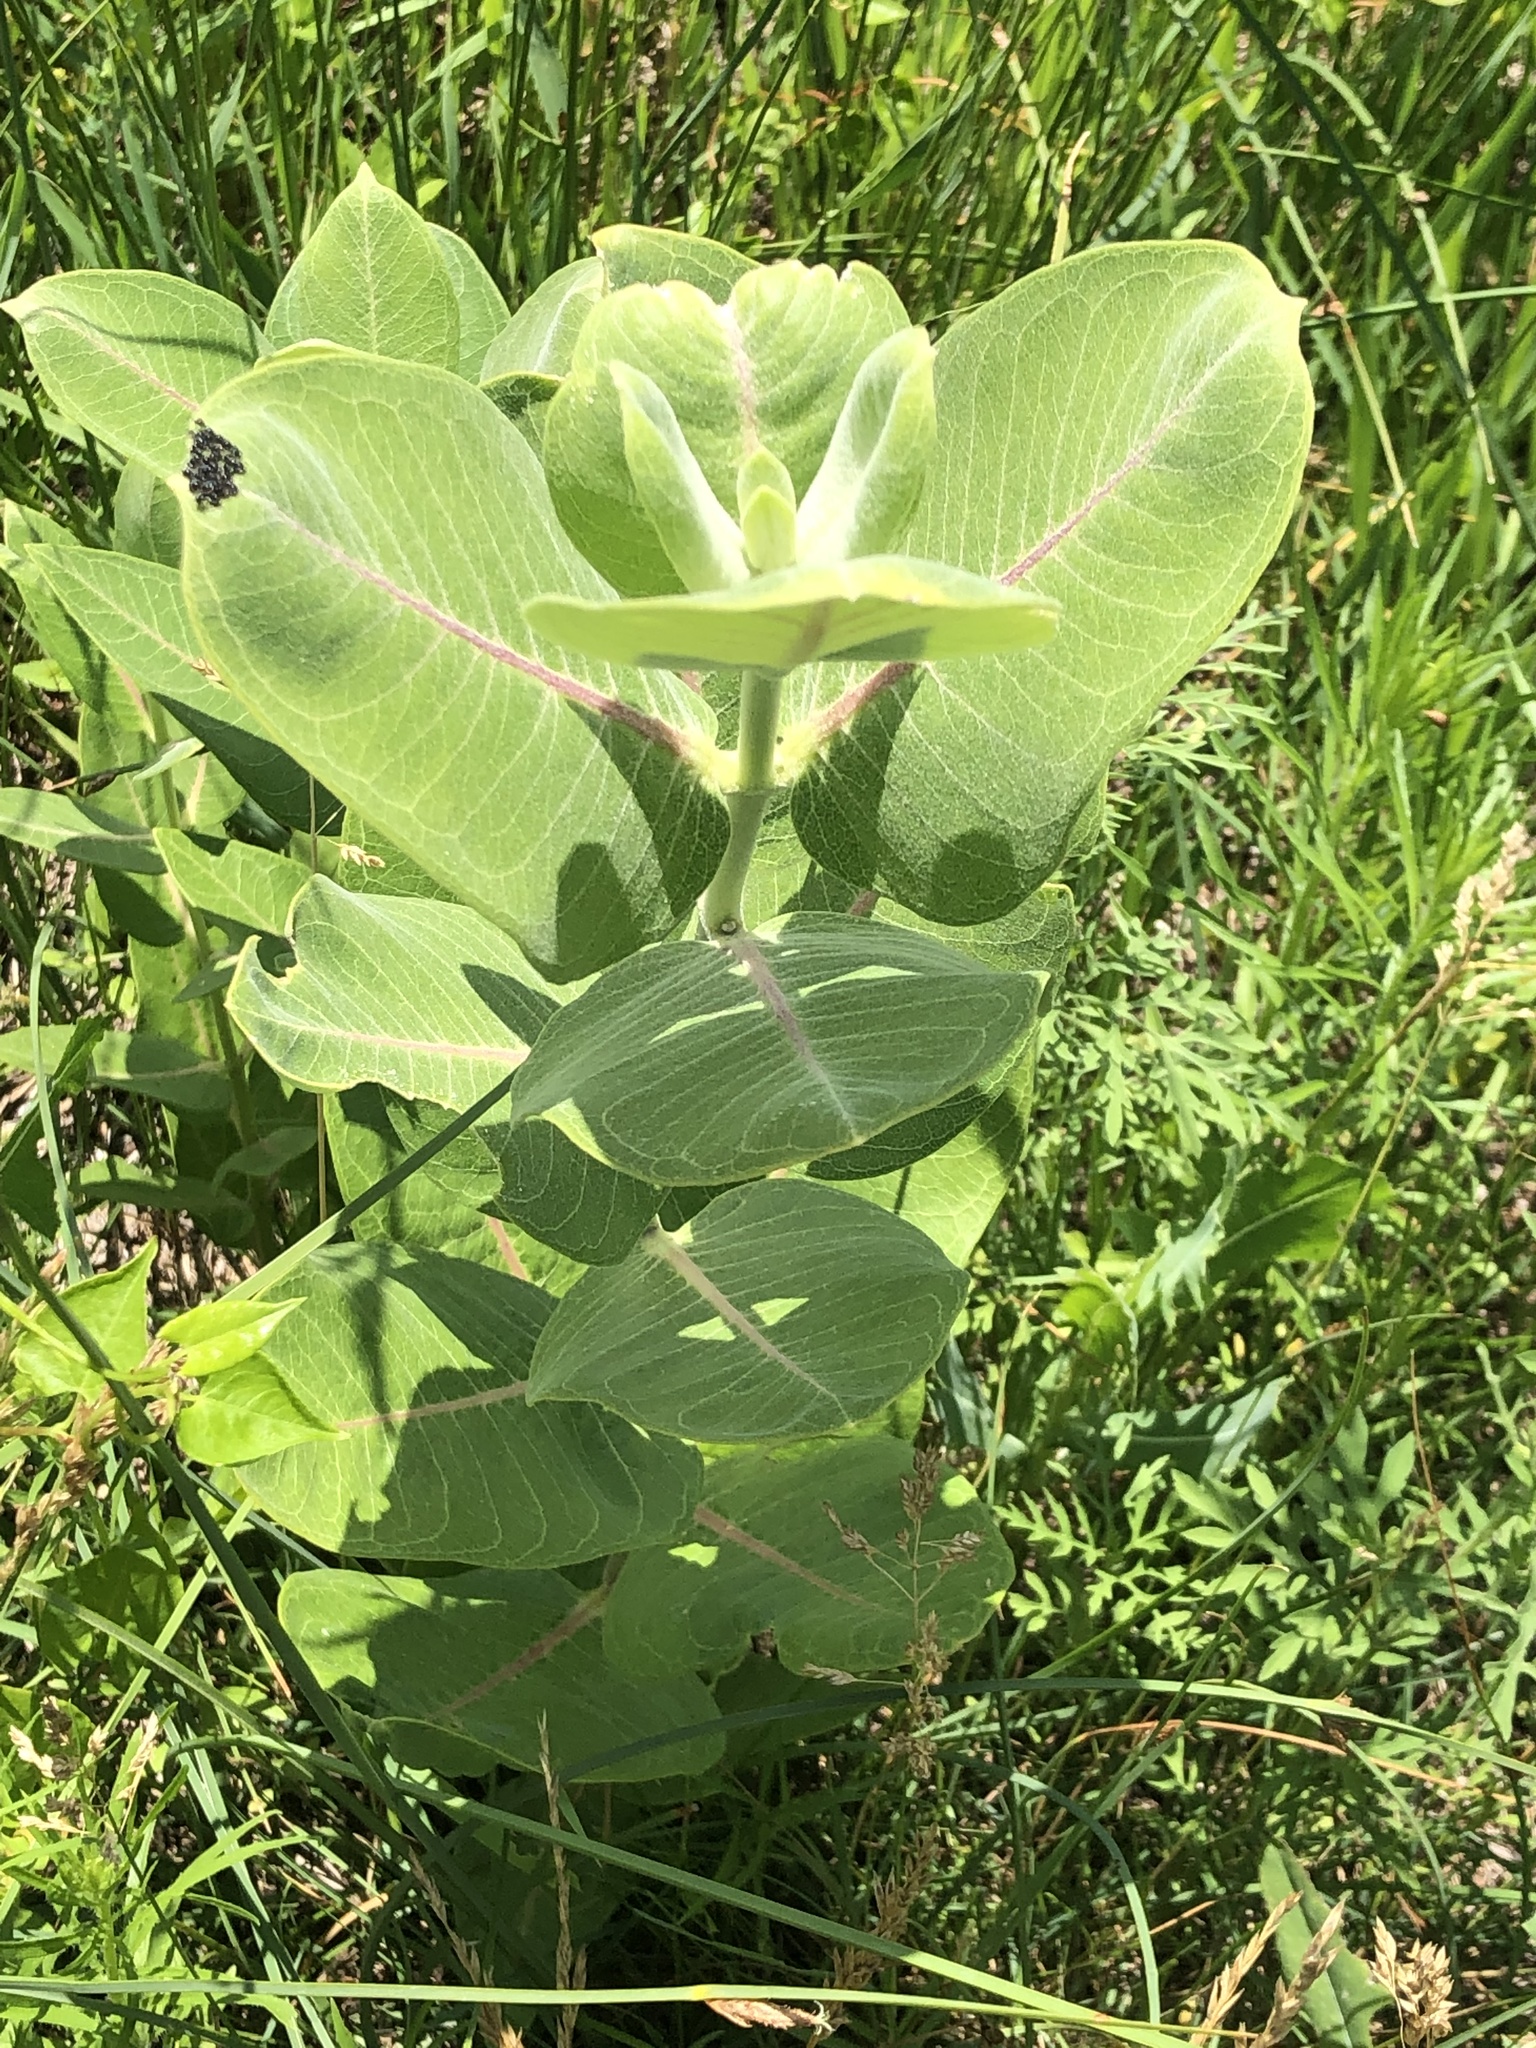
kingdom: Plantae
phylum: Tracheophyta
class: Magnoliopsida
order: Gentianales
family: Apocynaceae
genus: Asclepias
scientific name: Asclepias speciosa
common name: Showy milkweed
